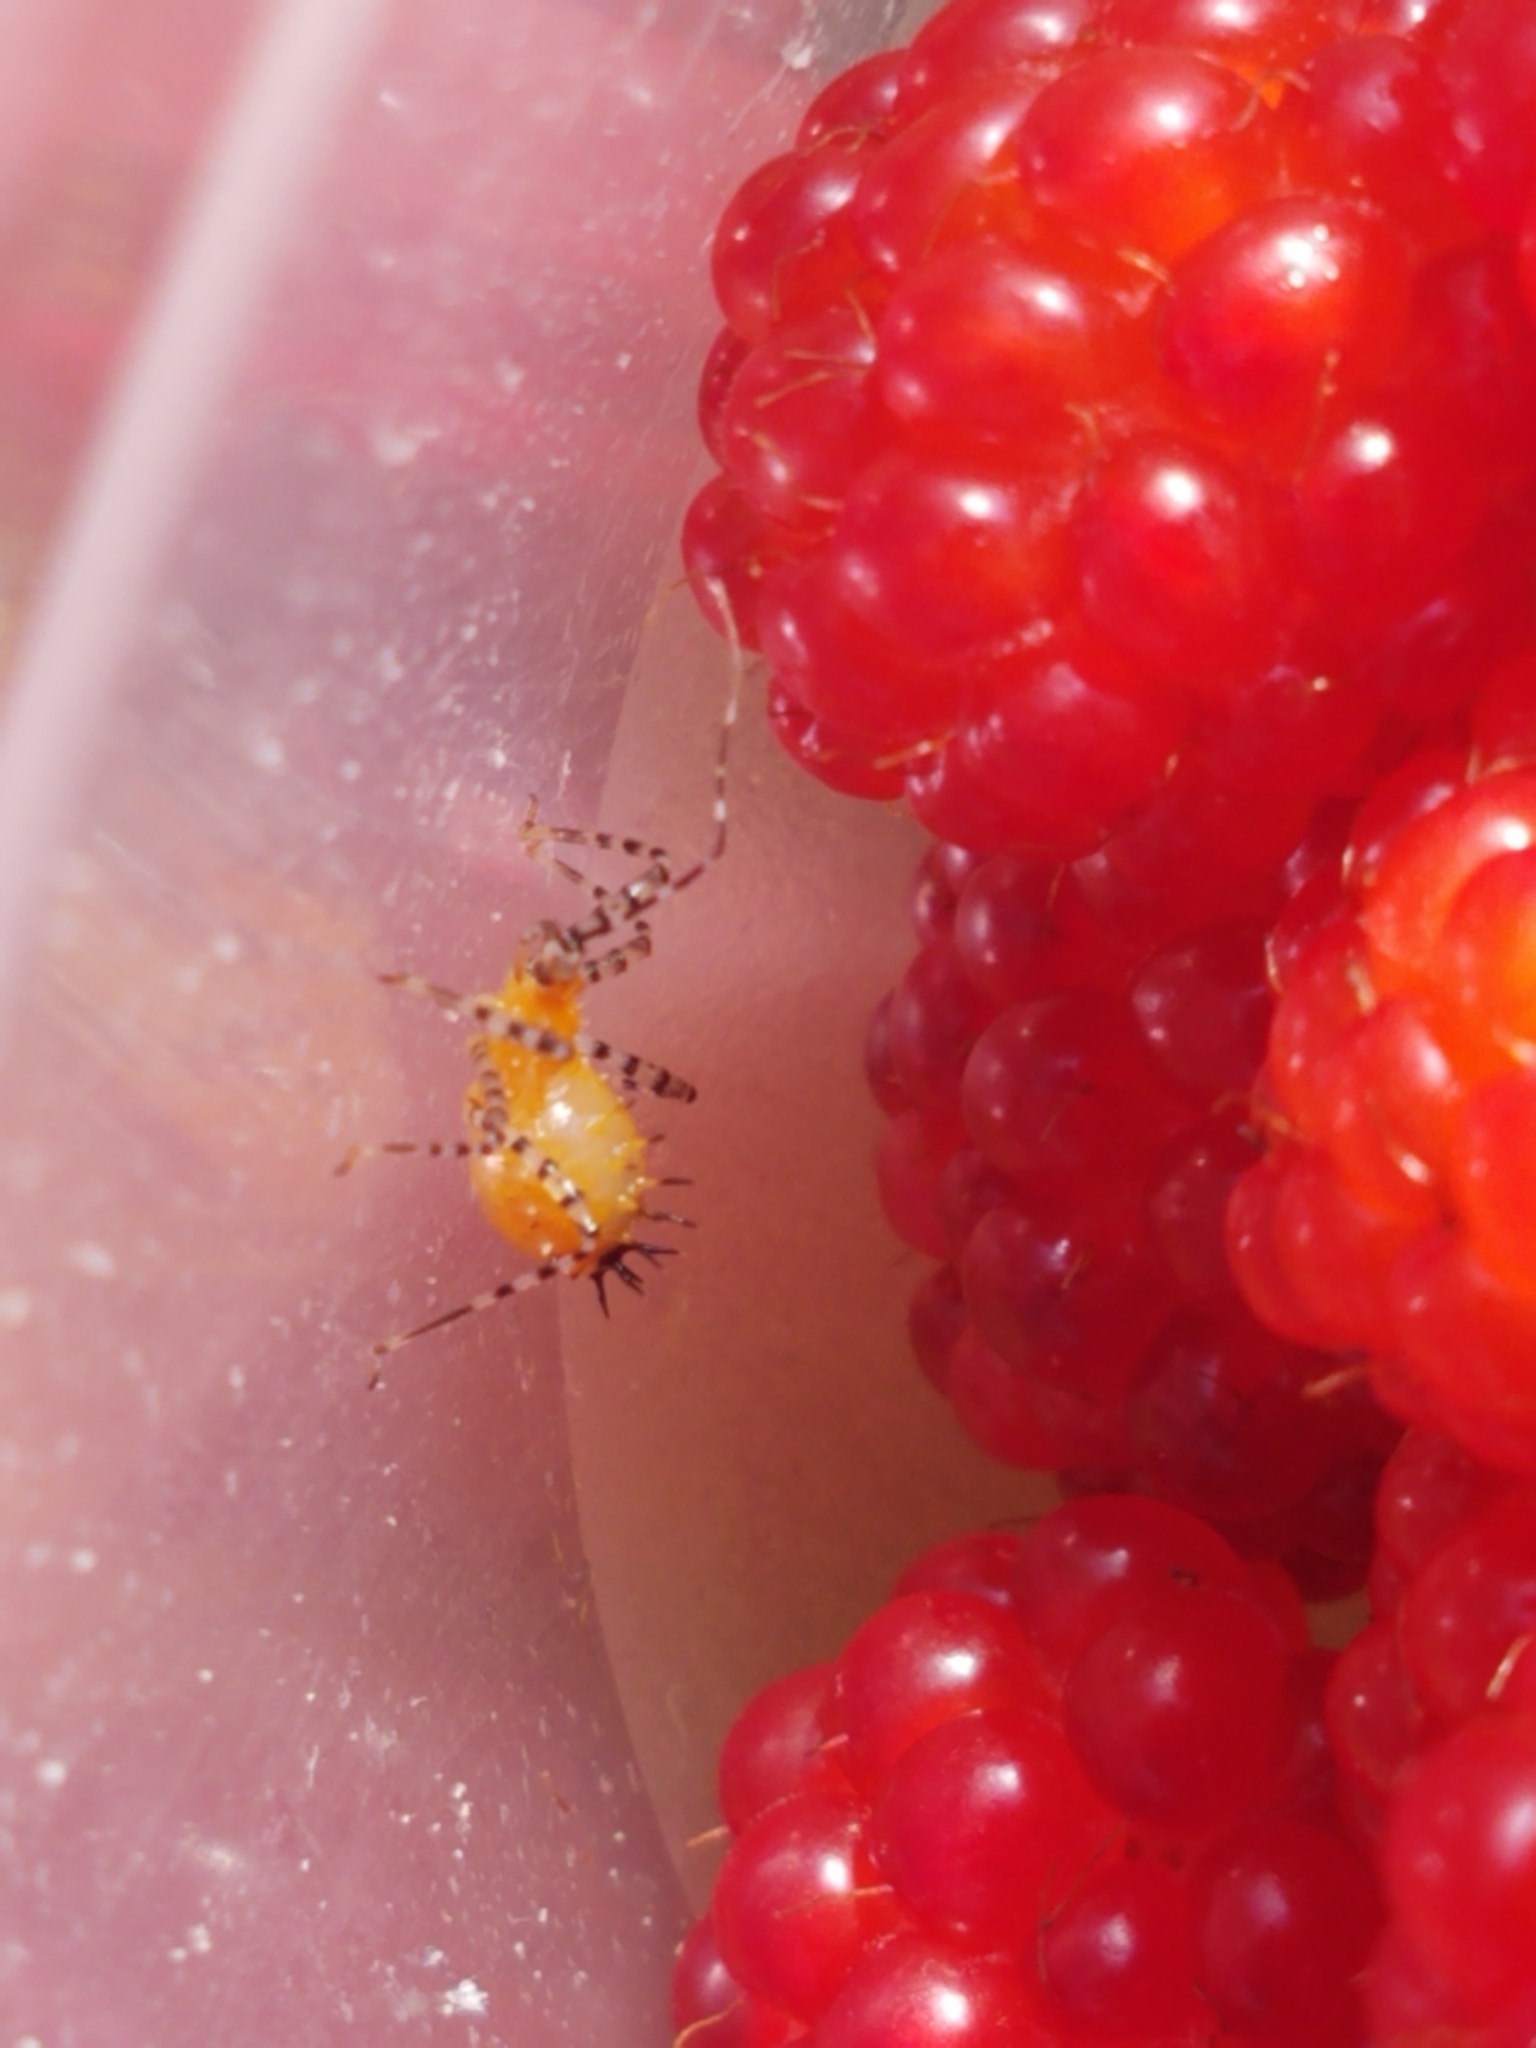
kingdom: Animalia
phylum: Arthropoda
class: Insecta
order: Hemiptera
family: Reduviidae
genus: Pselliopus
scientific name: Pselliopus cinctus
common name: Ringed assassin bug
